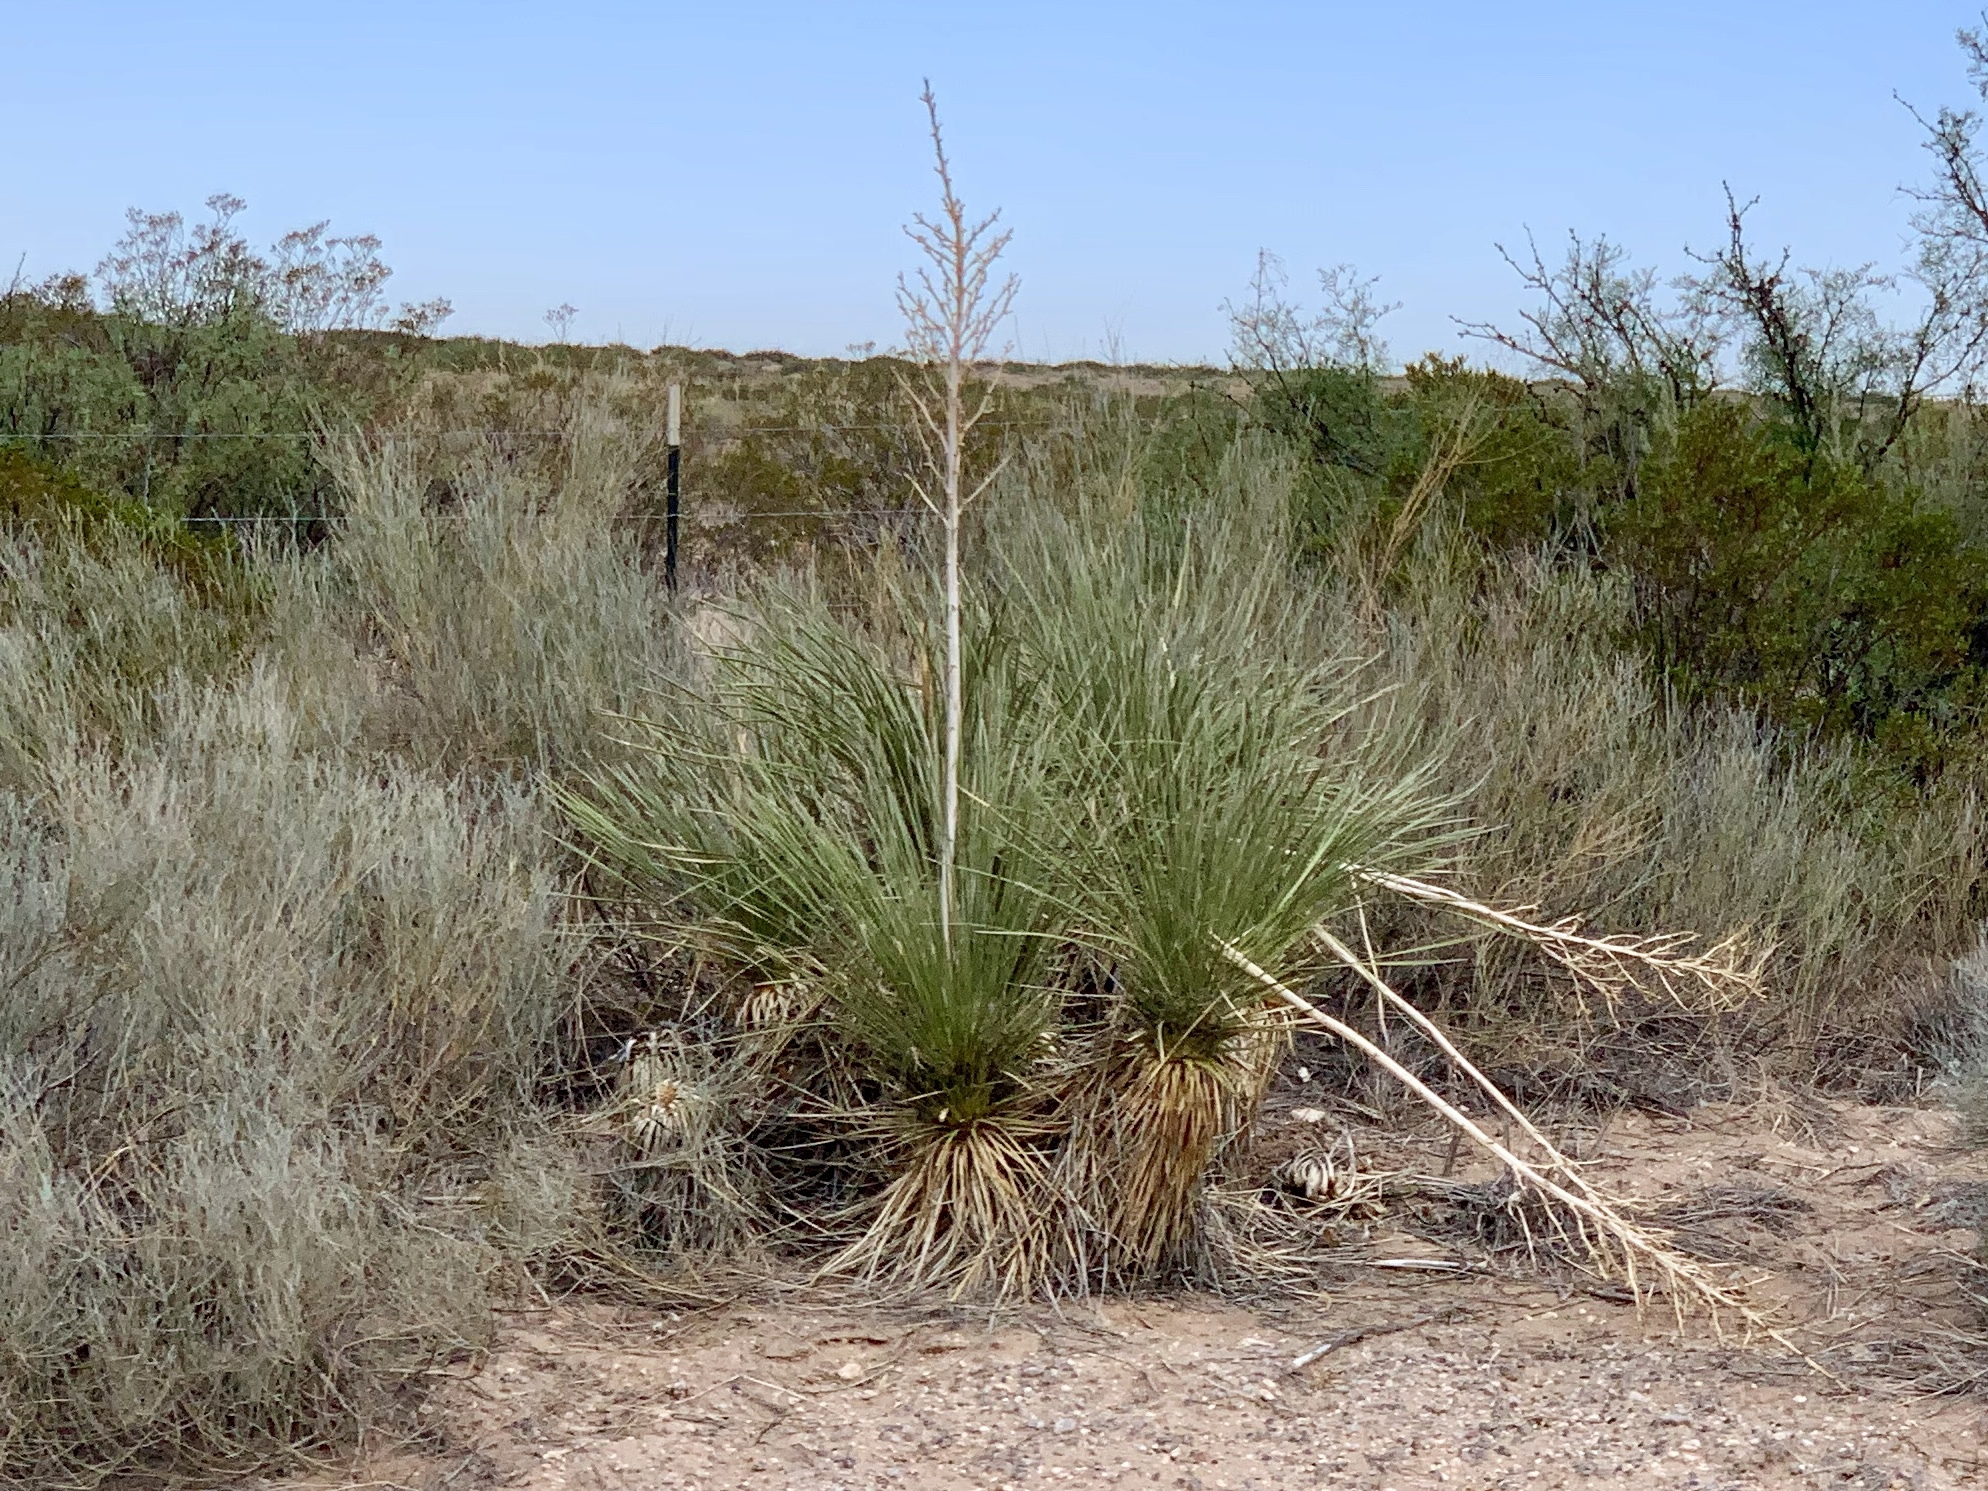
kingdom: Plantae
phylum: Tracheophyta
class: Liliopsida
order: Asparagales
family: Asparagaceae
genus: Yucca
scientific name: Yucca elata
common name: Palmella
